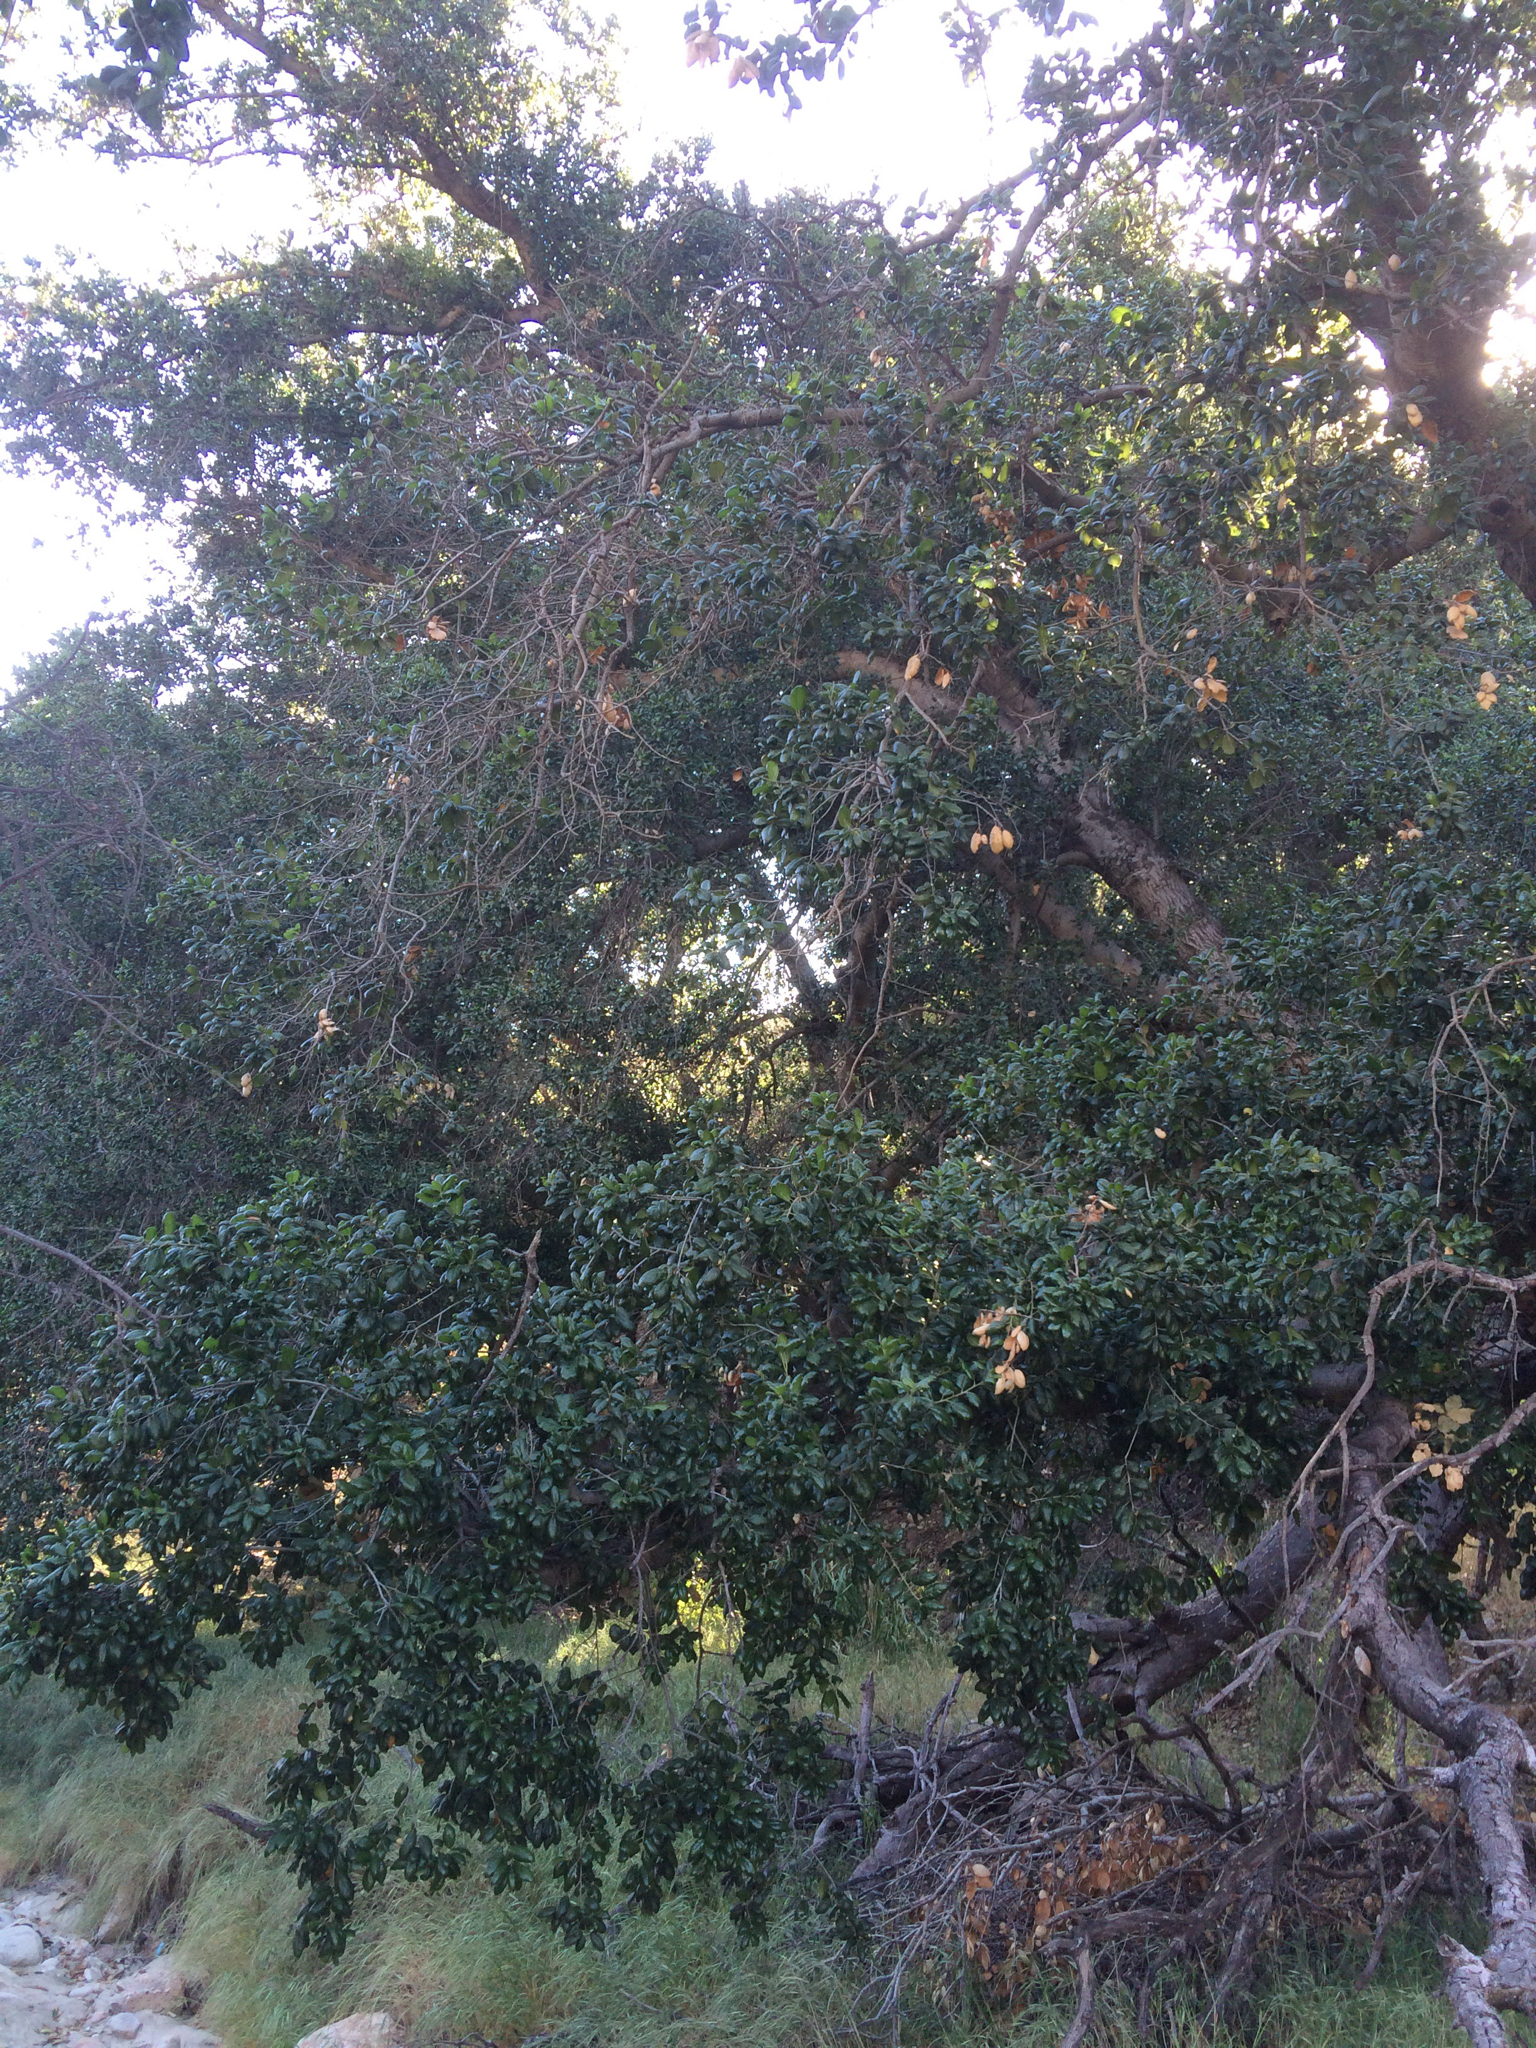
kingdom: Plantae
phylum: Tracheophyta
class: Magnoliopsida
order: Fagales
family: Fagaceae
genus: Quercus
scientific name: Quercus agrifolia
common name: California live oak
